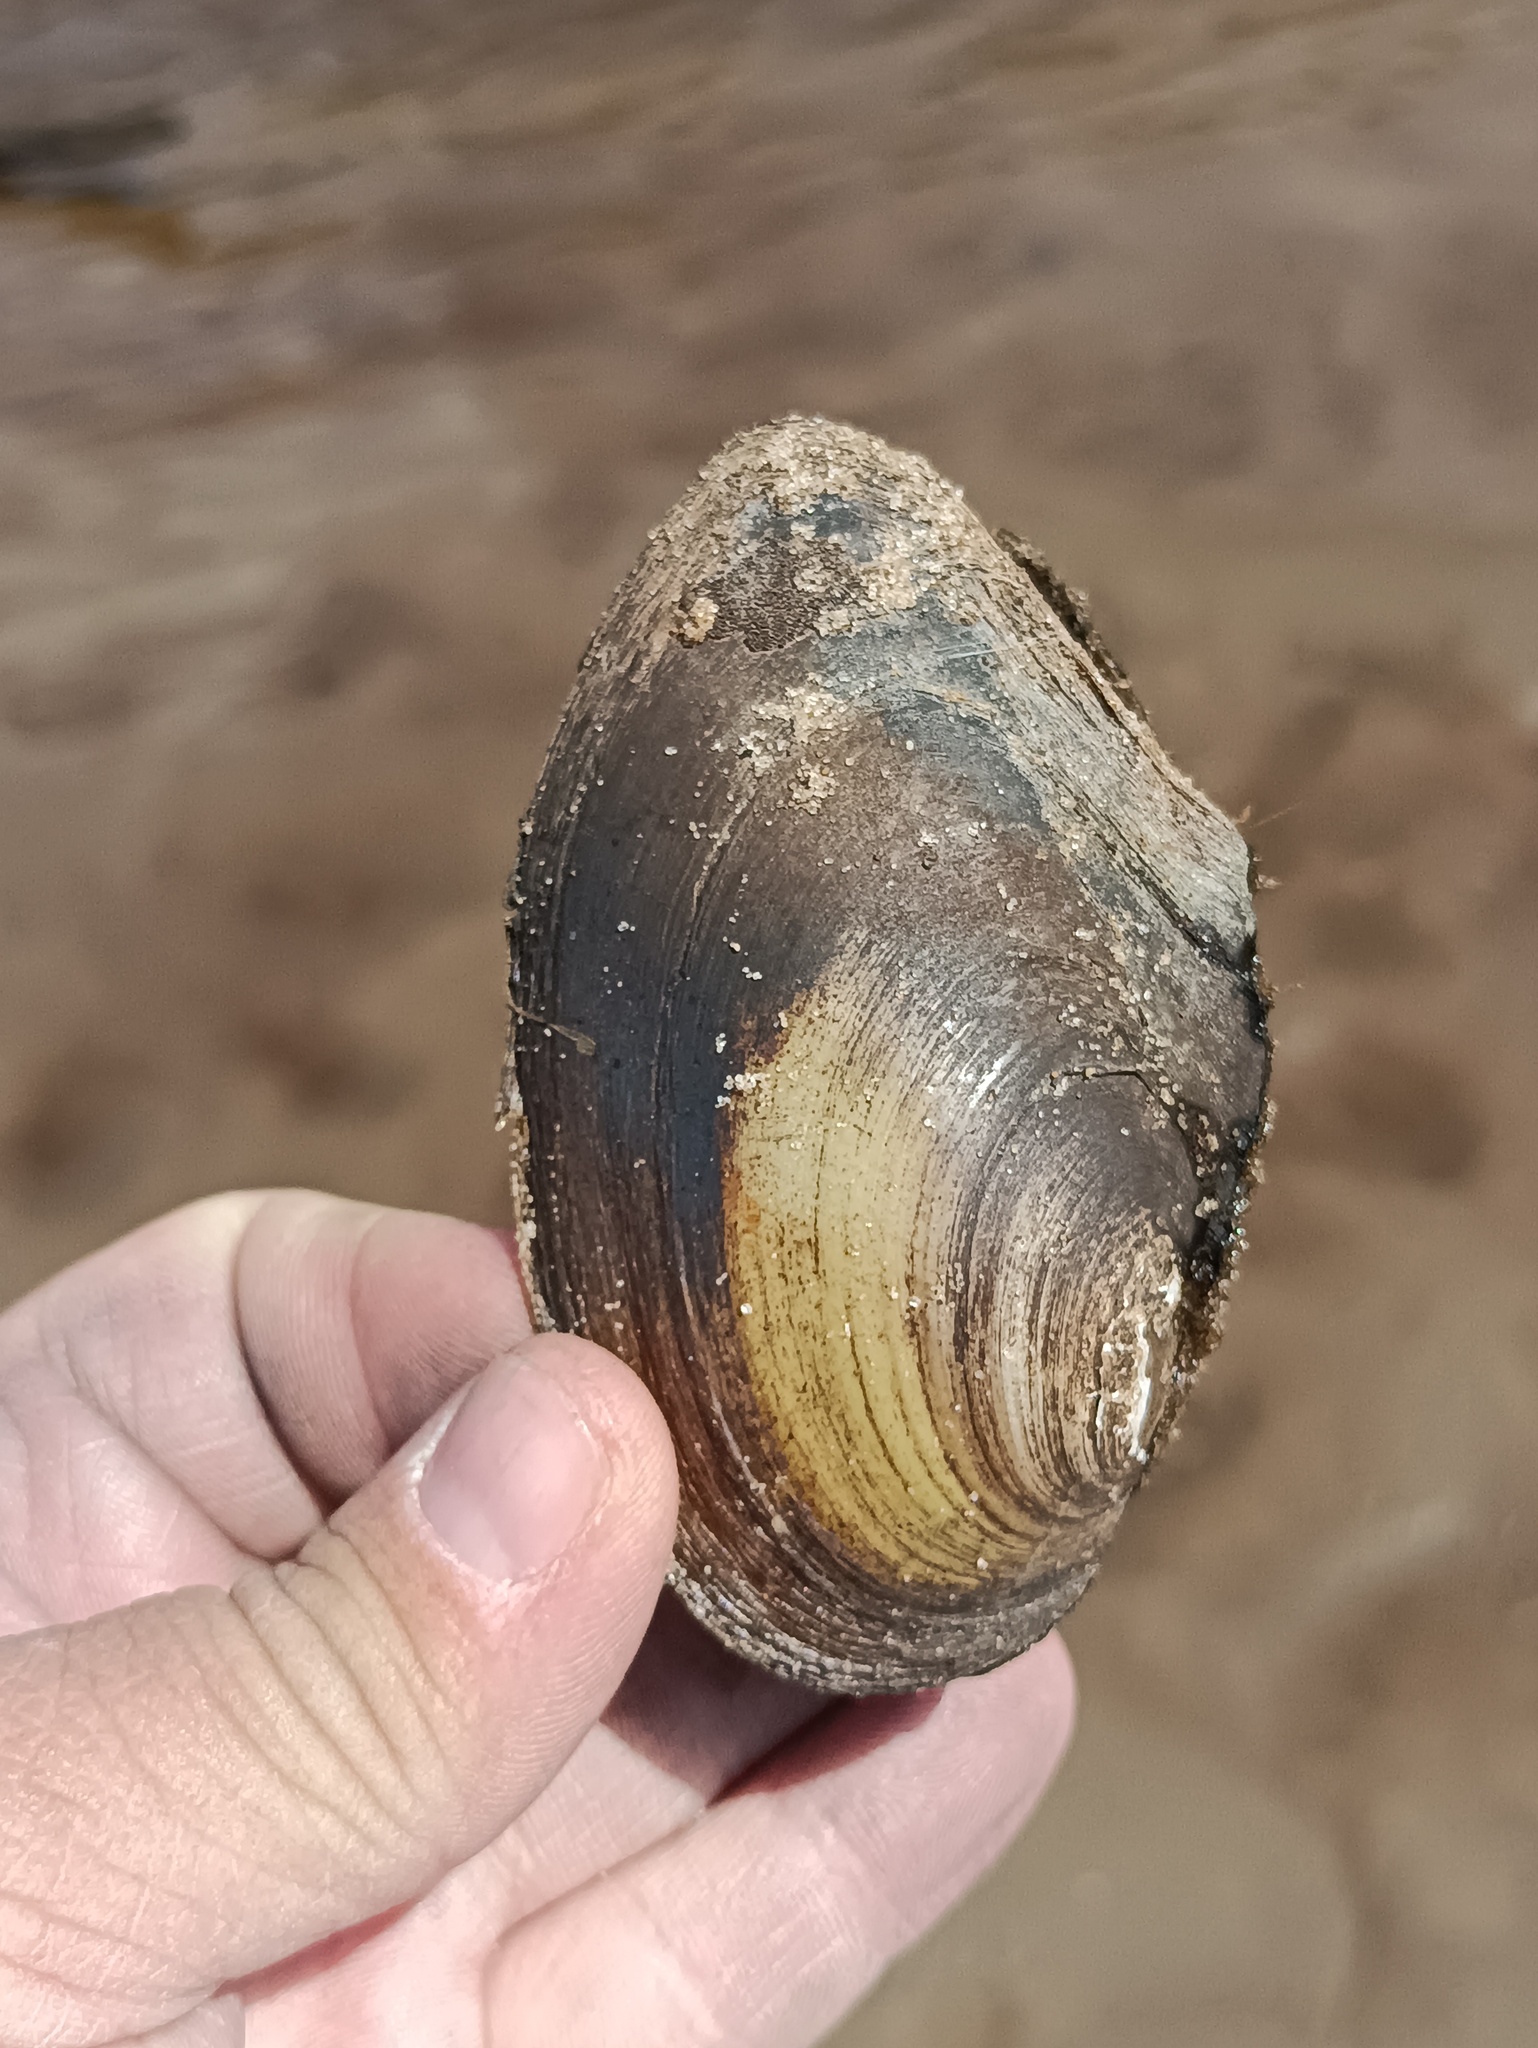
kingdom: Animalia
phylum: Mollusca
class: Bivalvia
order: Unionida
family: Unionidae
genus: Anodonta
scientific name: Anodonta anatina
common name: Duck mussel
